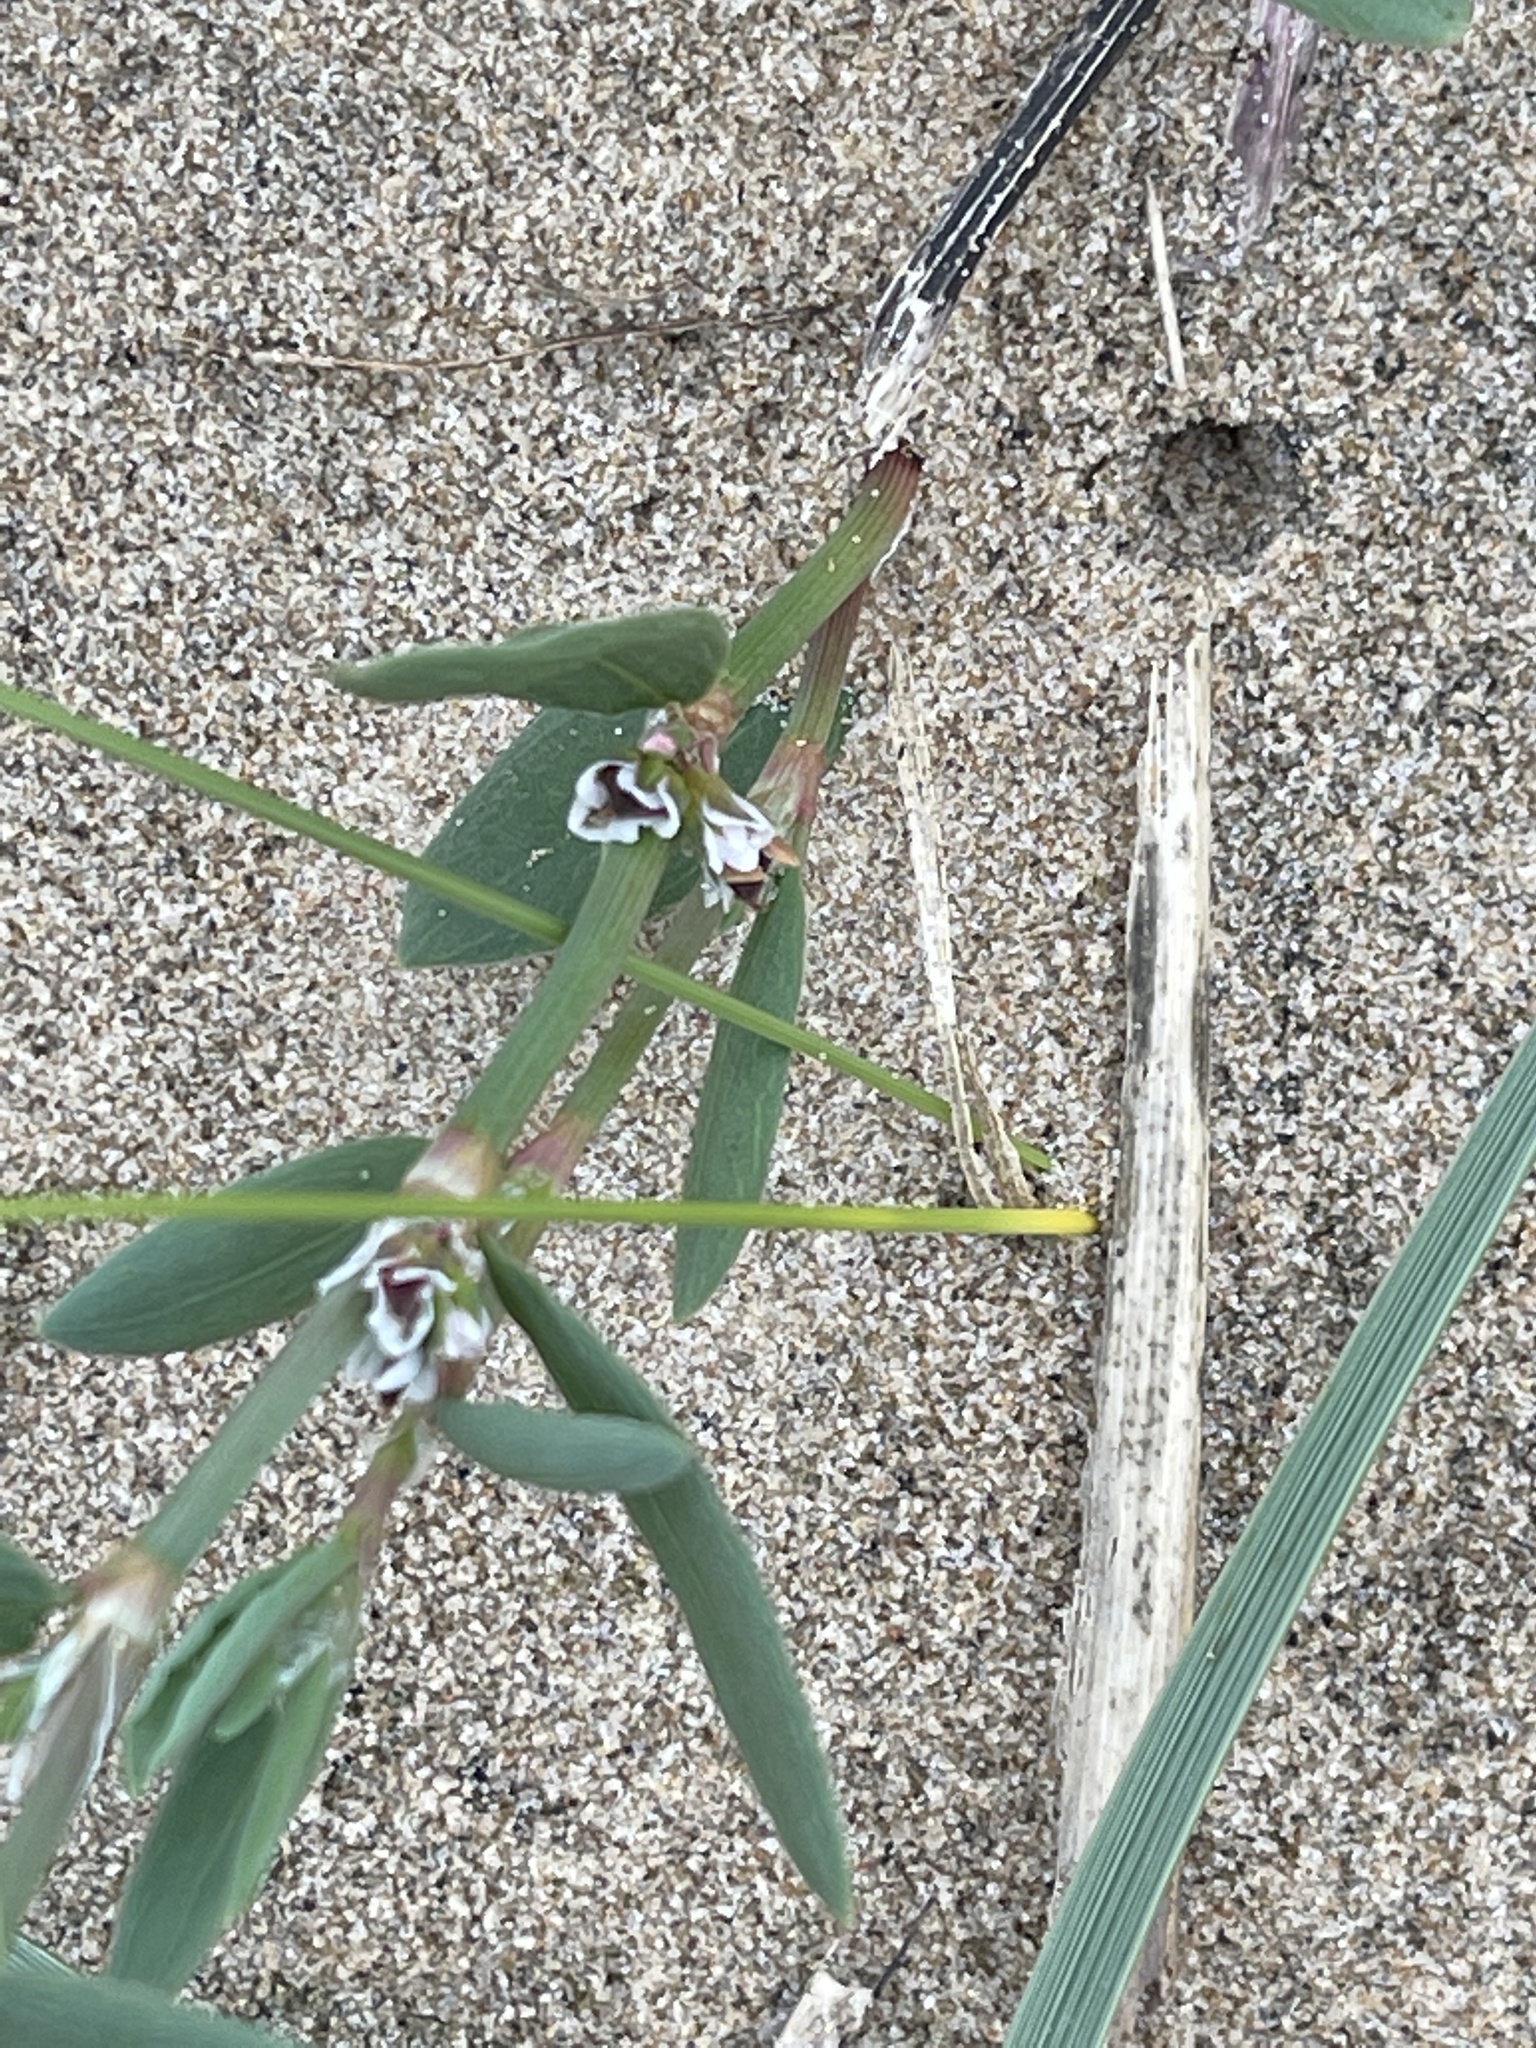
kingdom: Plantae
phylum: Tracheophyta
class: Magnoliopsida
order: Caryophyllales
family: Polygonaceae
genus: Polygonum
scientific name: Polygonum raii
